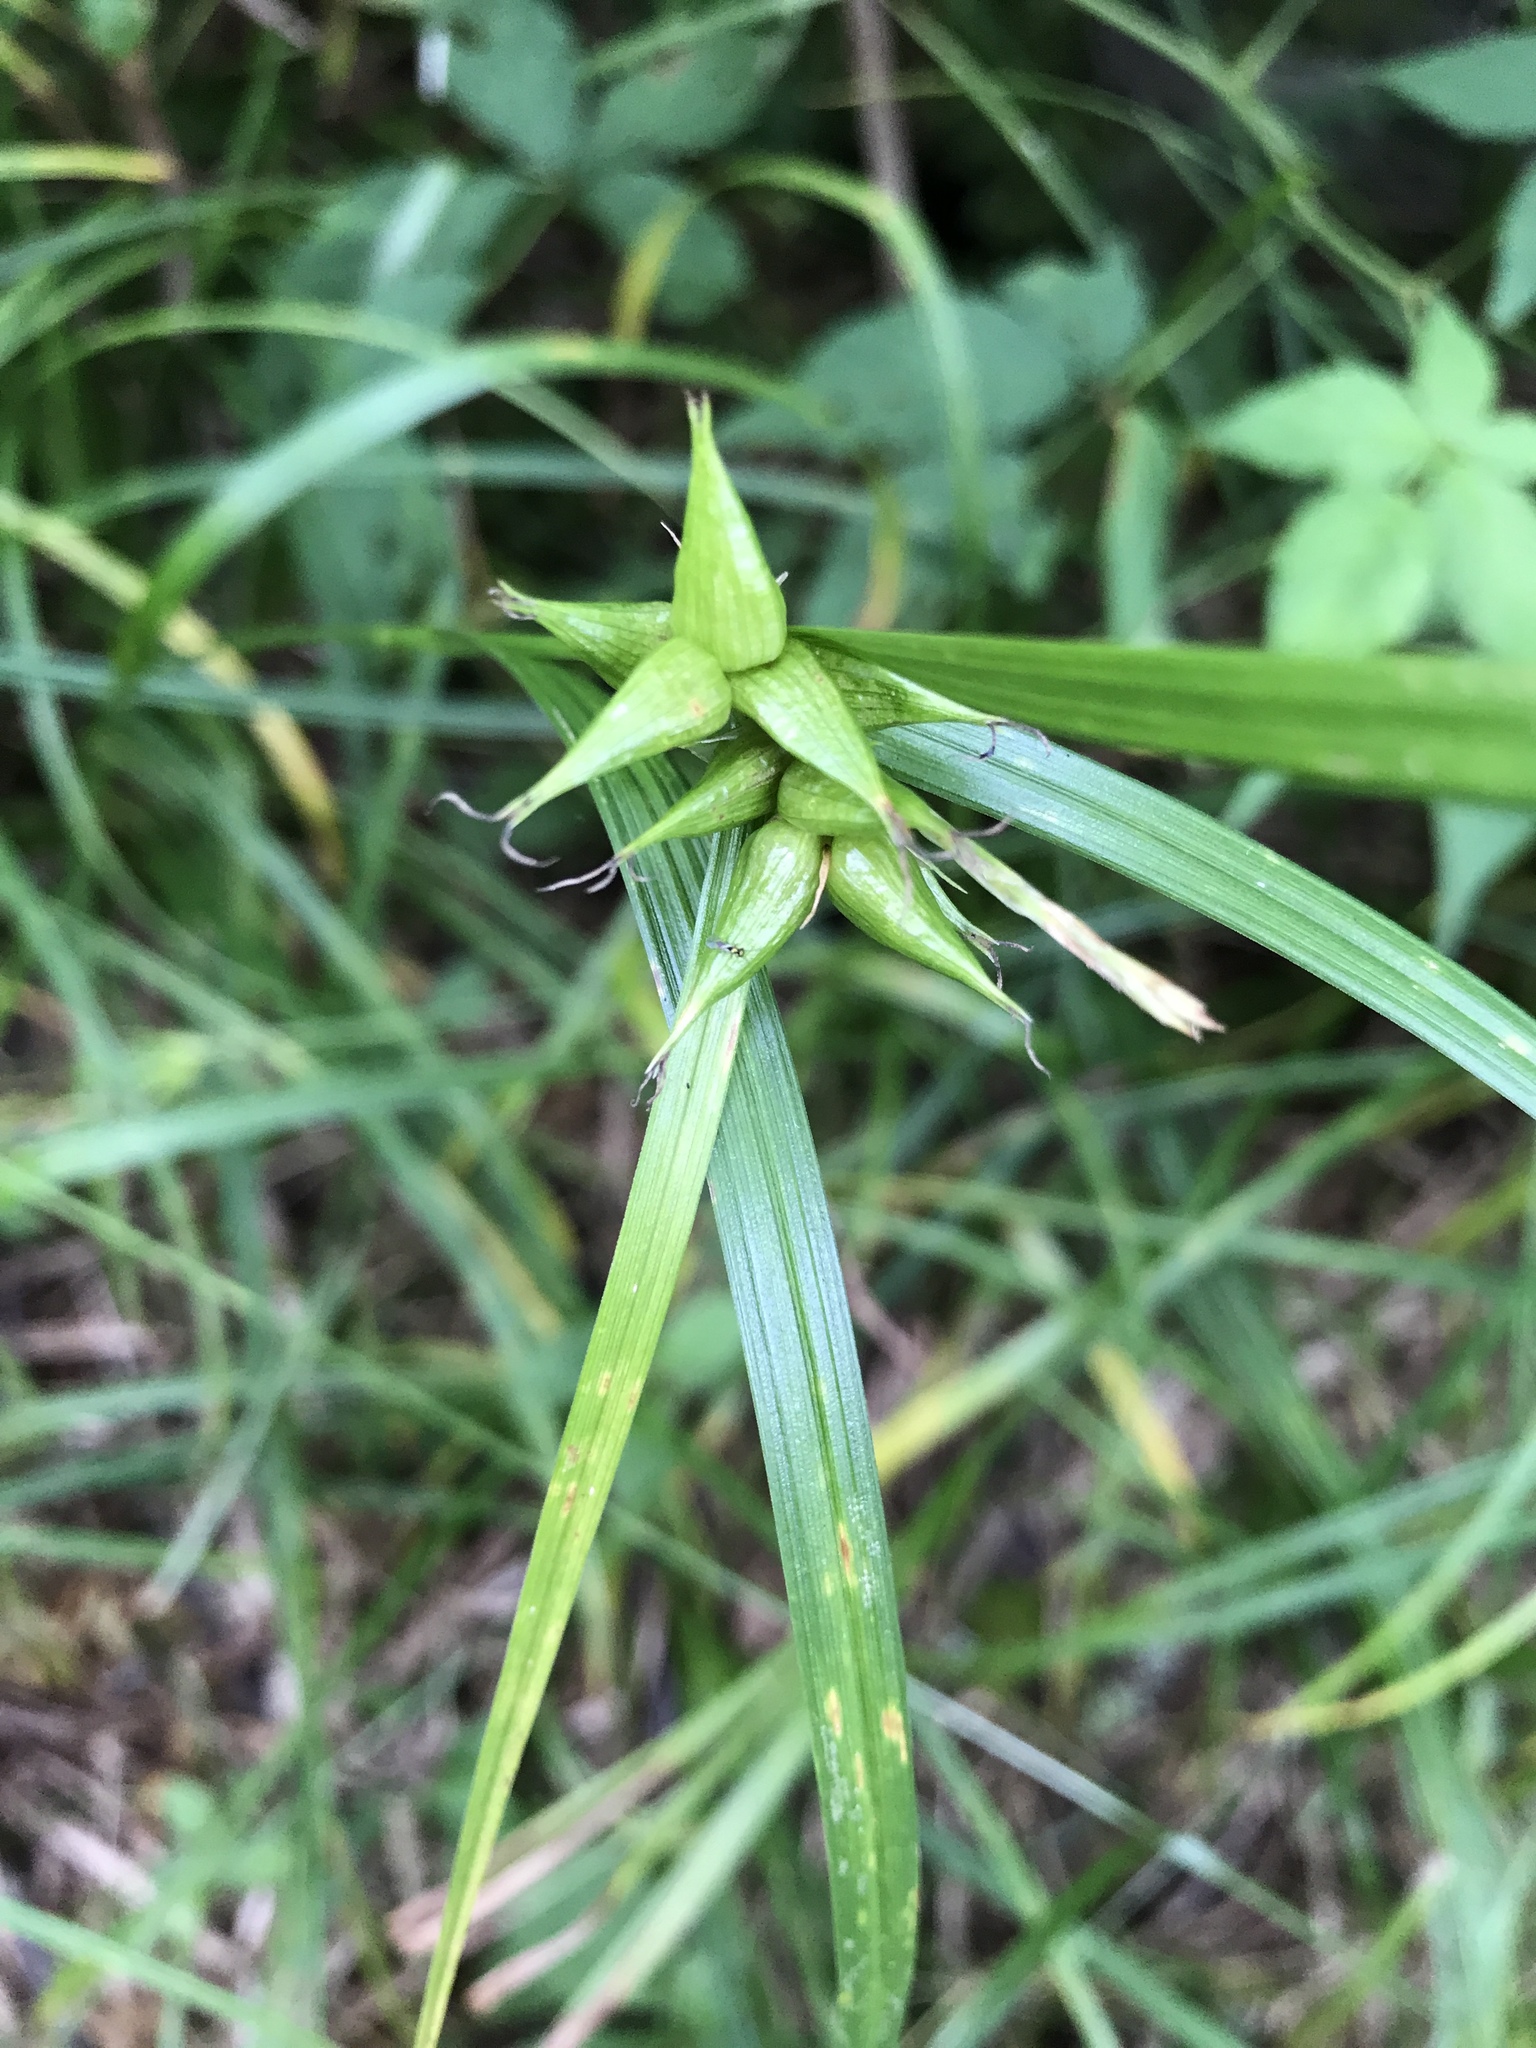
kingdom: Plantae
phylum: Tracheophyta
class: Liliopsida
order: Poales
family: Cyperaceae
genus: Carex
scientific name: Carex intumescens
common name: Greater bladder sedge
